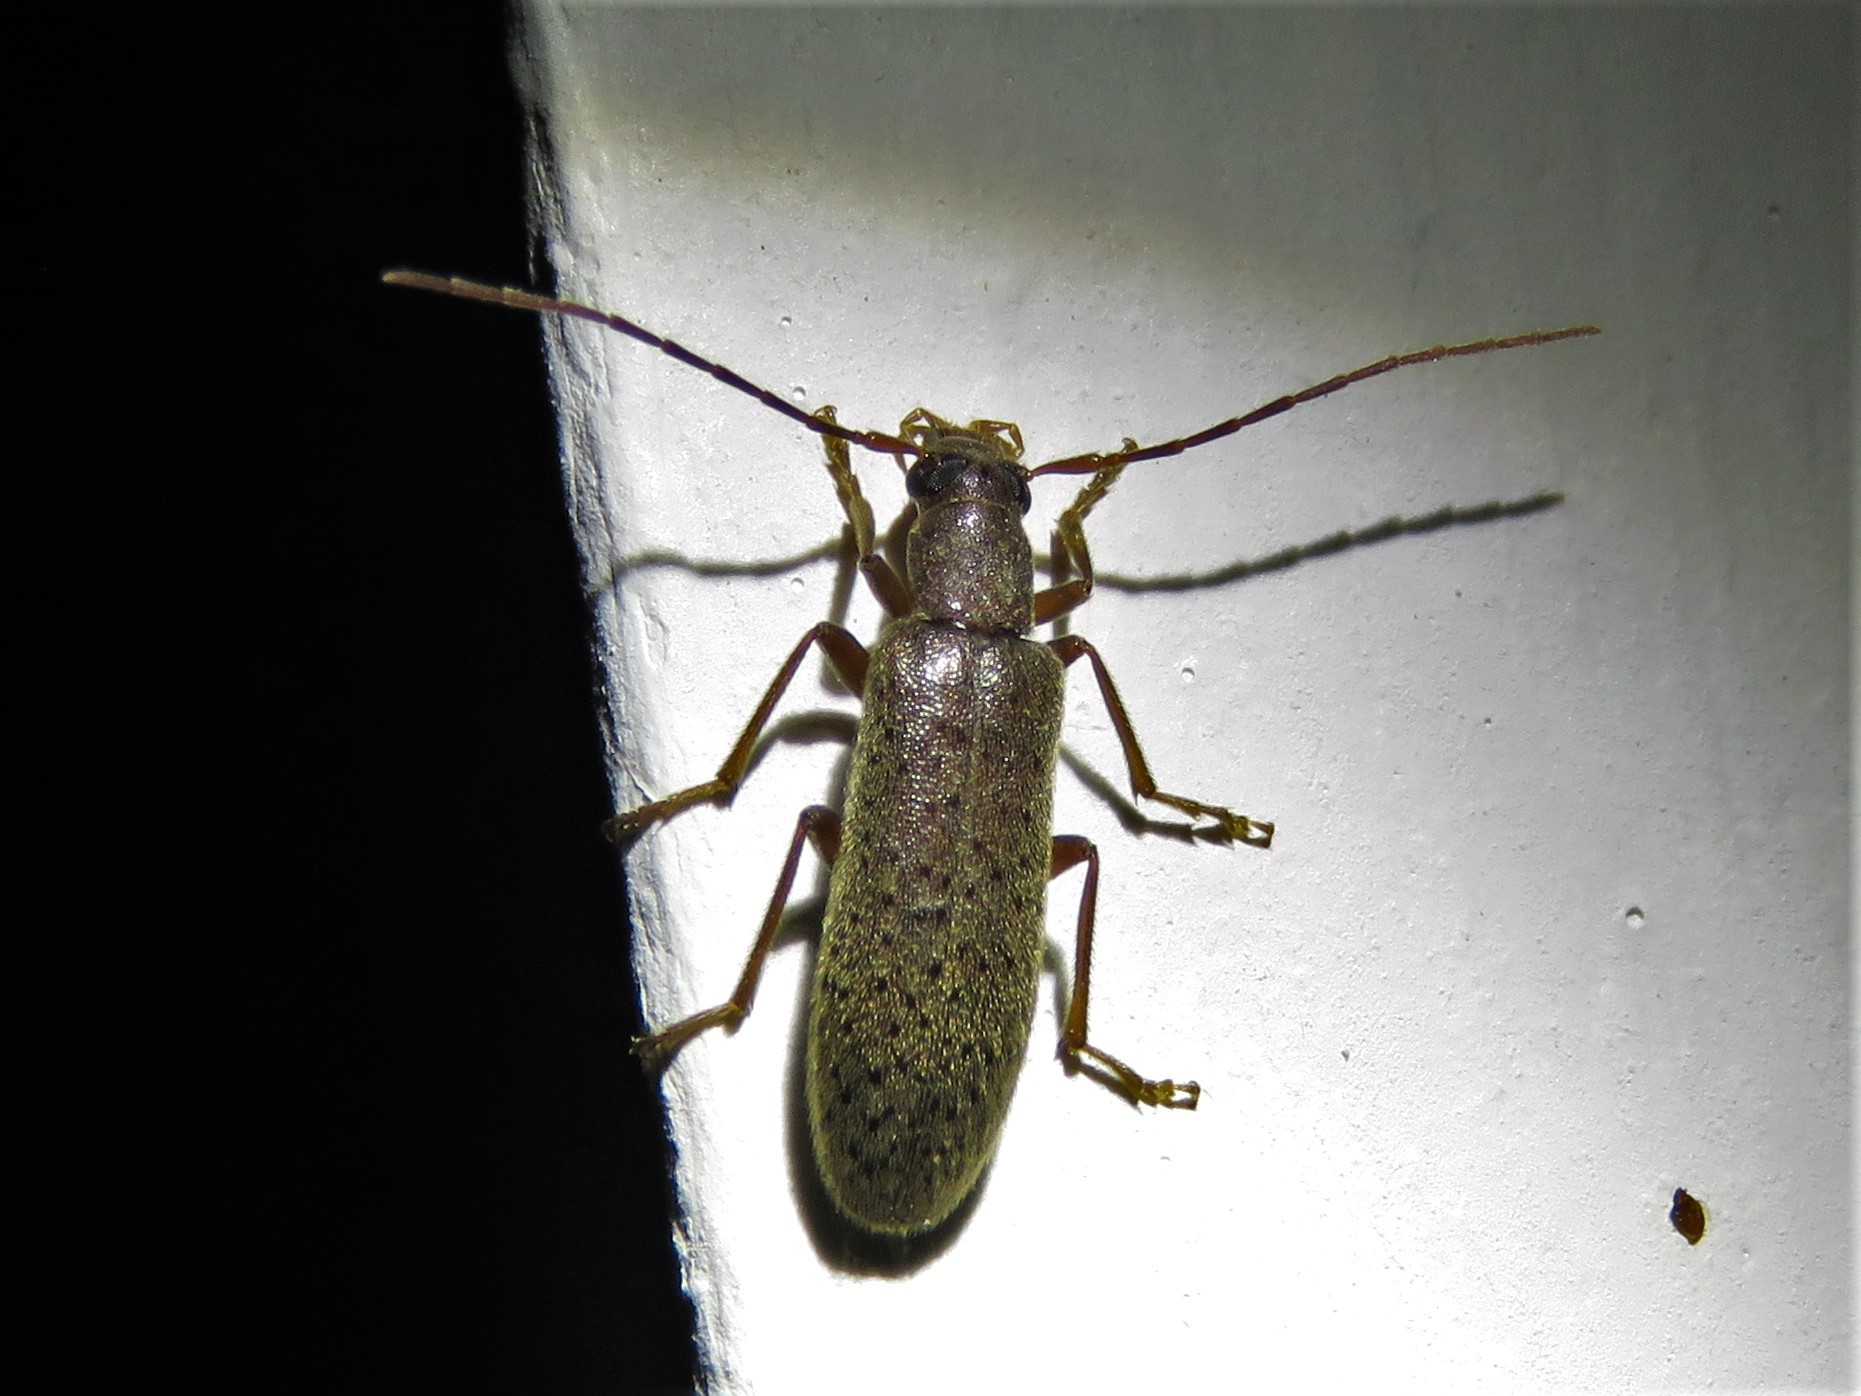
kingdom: Animalia
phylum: Arthropoda
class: Insecta
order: Coleoptera
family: Oedemeridae
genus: Sparedrus
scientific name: Sparedrus aspersus
